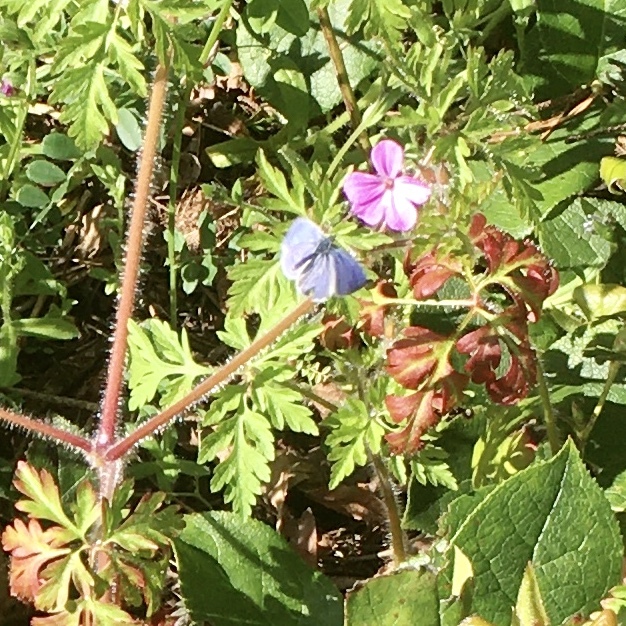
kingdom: Animalia
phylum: Arthropoda
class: Insecta
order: Lepidoptera
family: Lycaenidae
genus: Celastrina
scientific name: Celastrina ladon
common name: Spring azure
